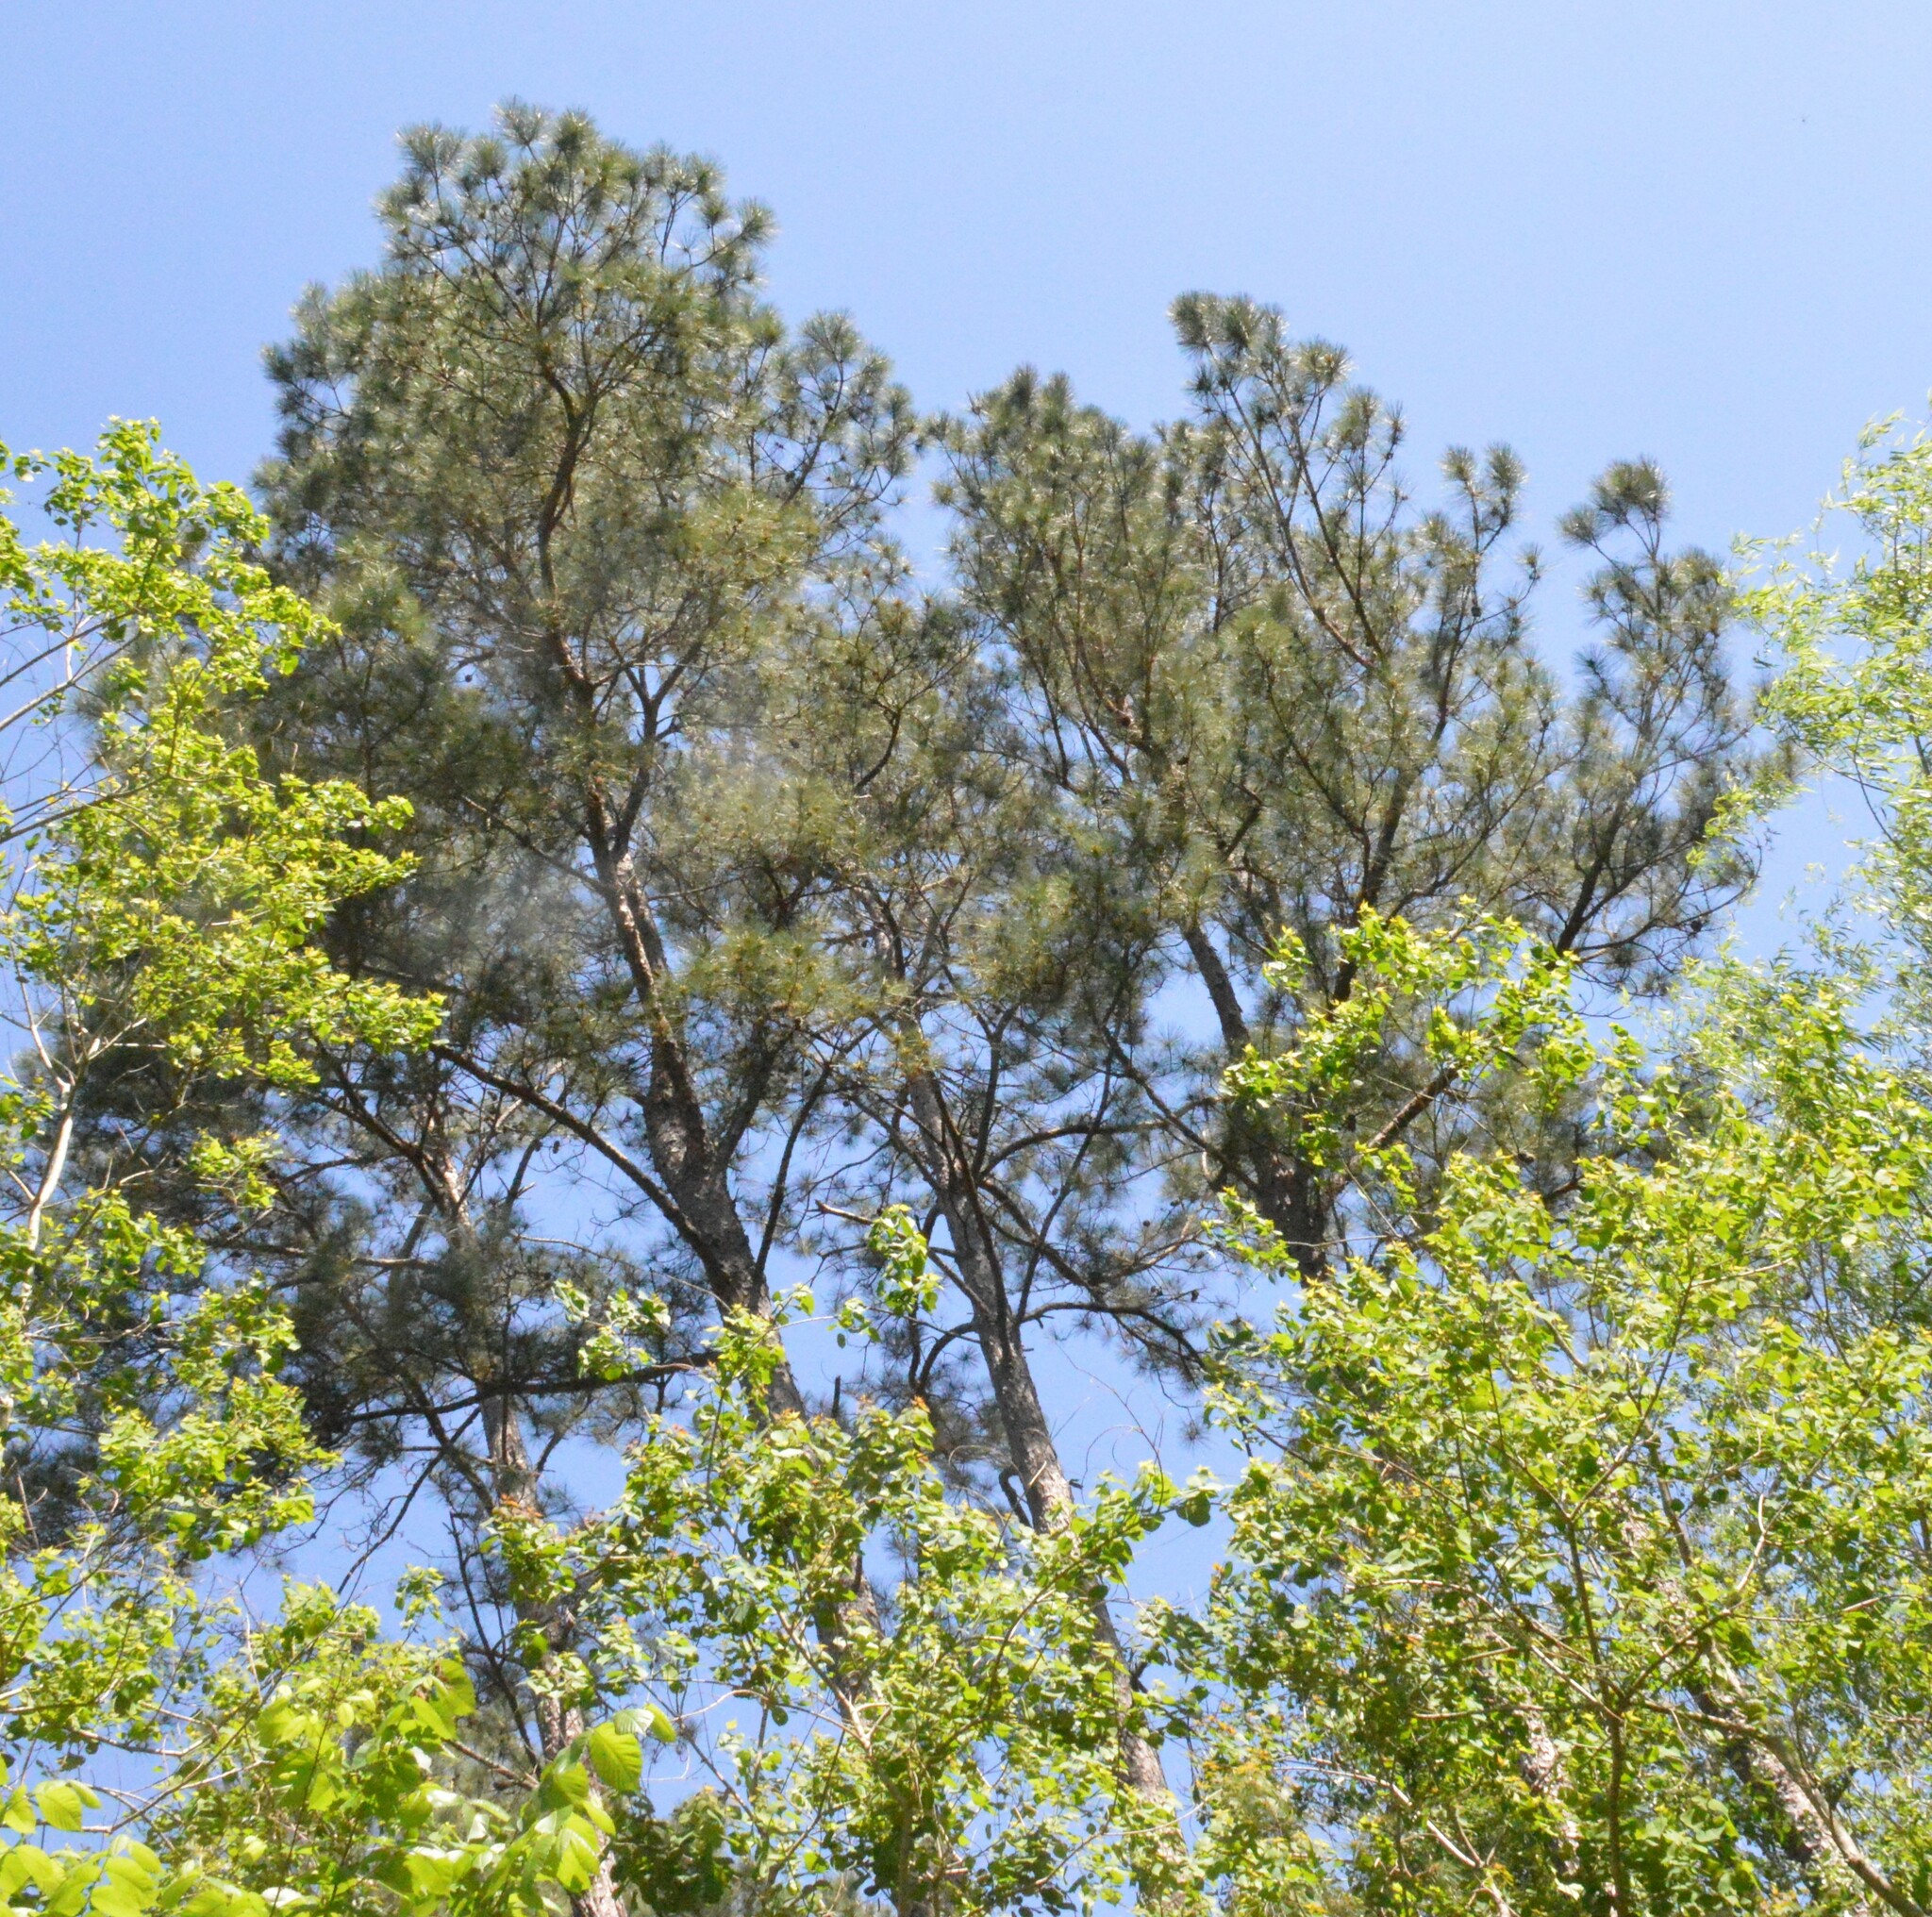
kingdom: Plantae
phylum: Tracheophyta
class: Pinopsida
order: Pinales
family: Pinaceae
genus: Pinus
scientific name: Pinus taeda
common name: Loblolly pine
